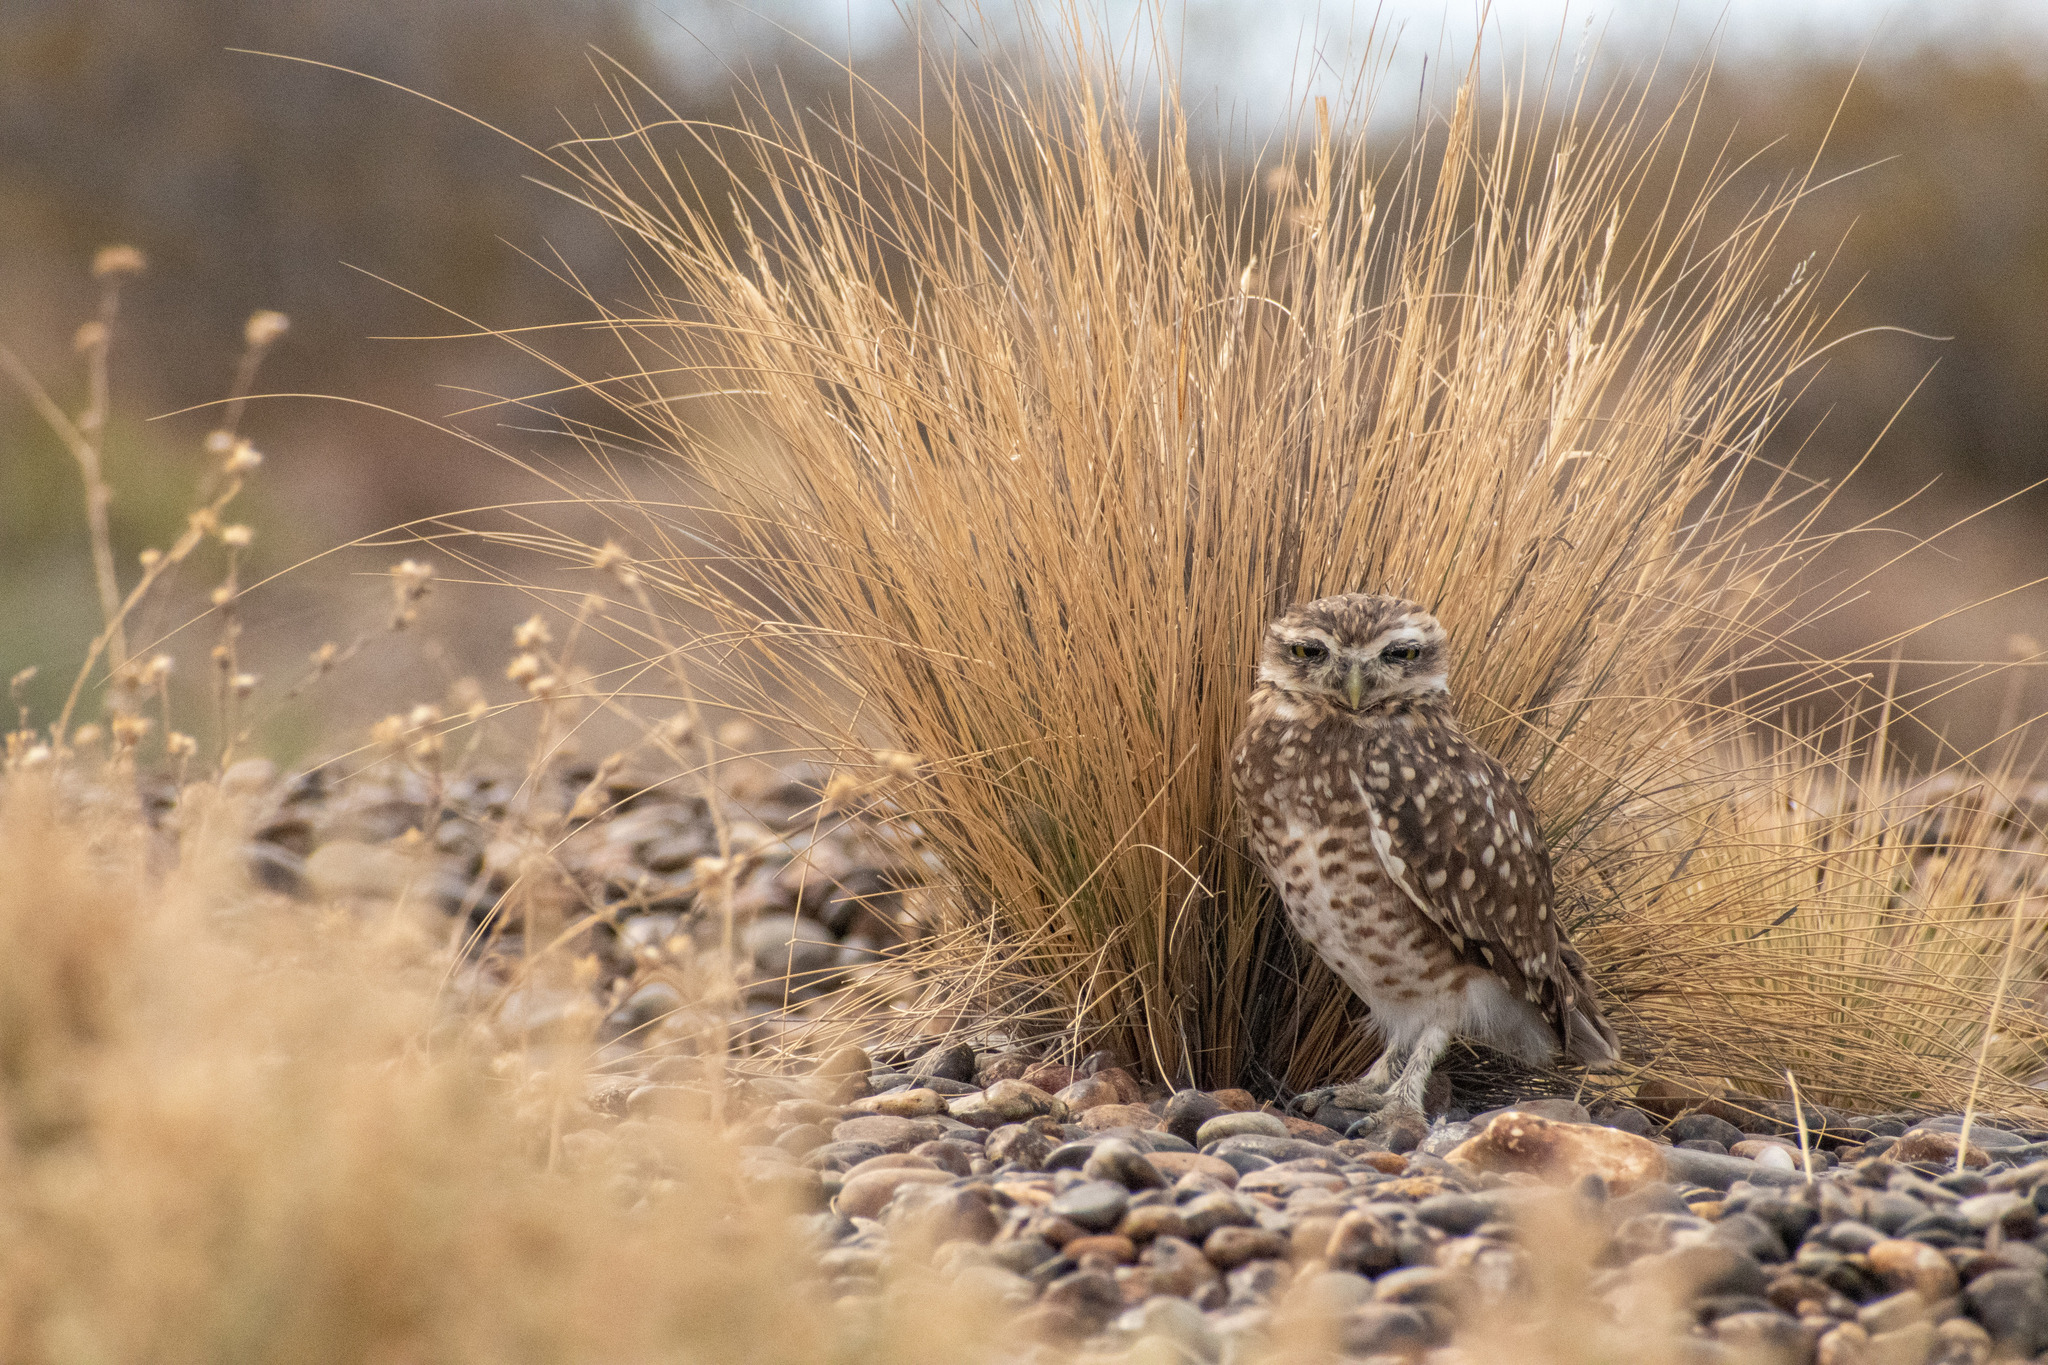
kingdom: Animalia
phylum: Chordata
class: Aves
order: Strigiformes
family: Strigidae
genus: Athene
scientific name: Athene cunicularia
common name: Burrowing owl
